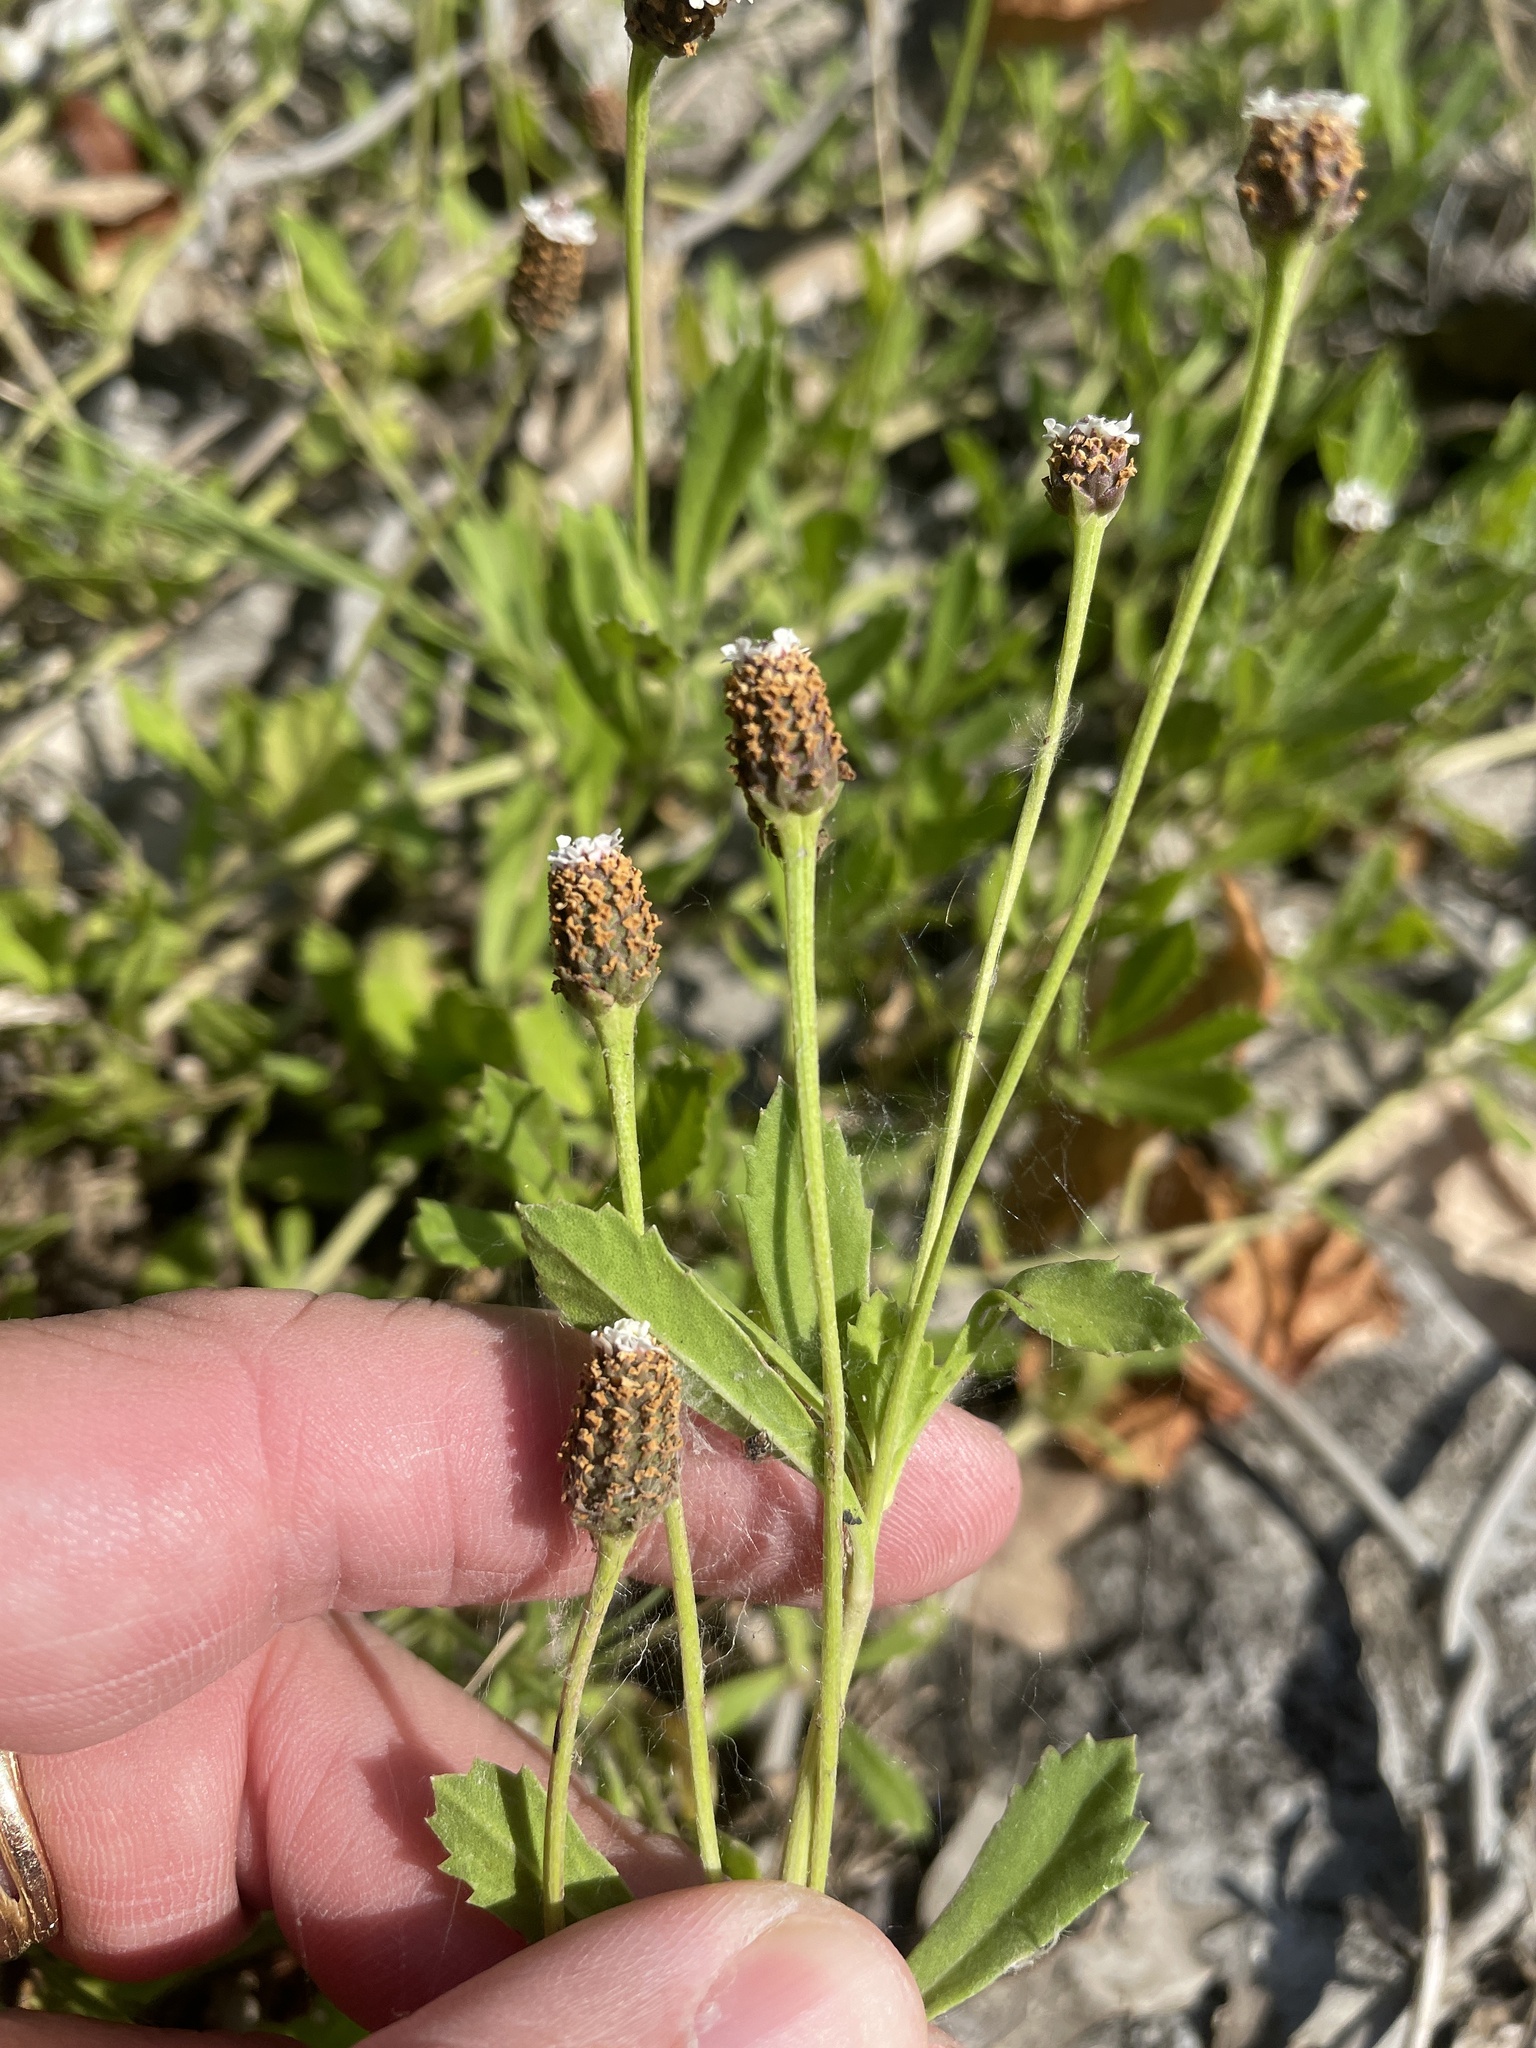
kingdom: Plantae
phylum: Tracheophyta
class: Magnoliopsida
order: Lamiales
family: Verbenaceae
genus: Phyla
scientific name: Phyla nodiflora
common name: Frogfruit
